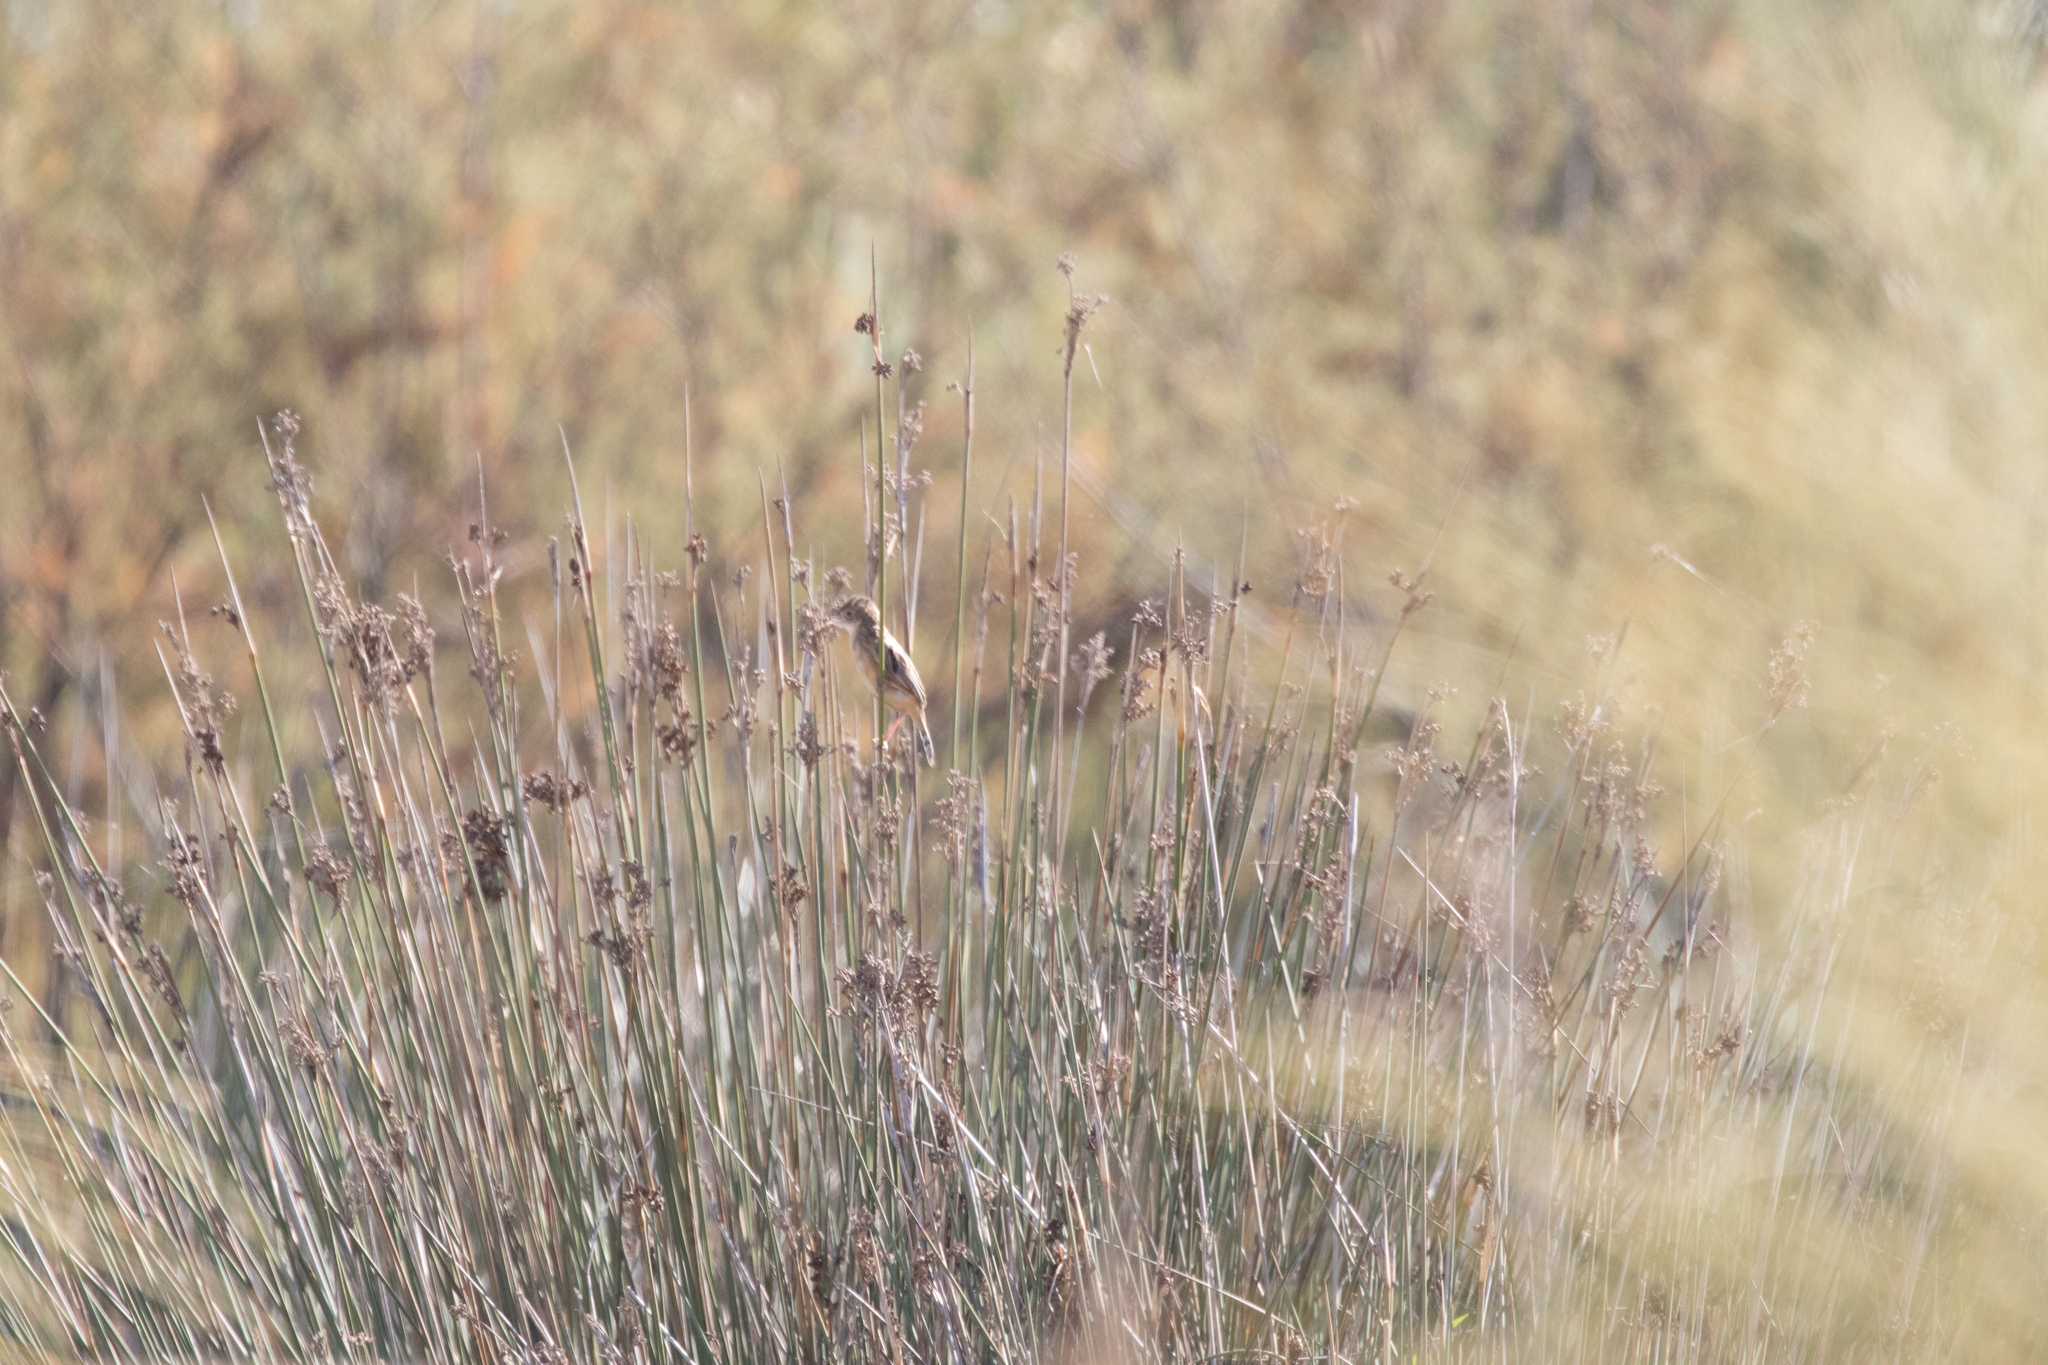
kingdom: Animalia
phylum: Chordata
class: Aves
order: Passeriformes
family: Cisticolidae
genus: Cisticola
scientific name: Cisticola juncidis
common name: Zitting cisticola
